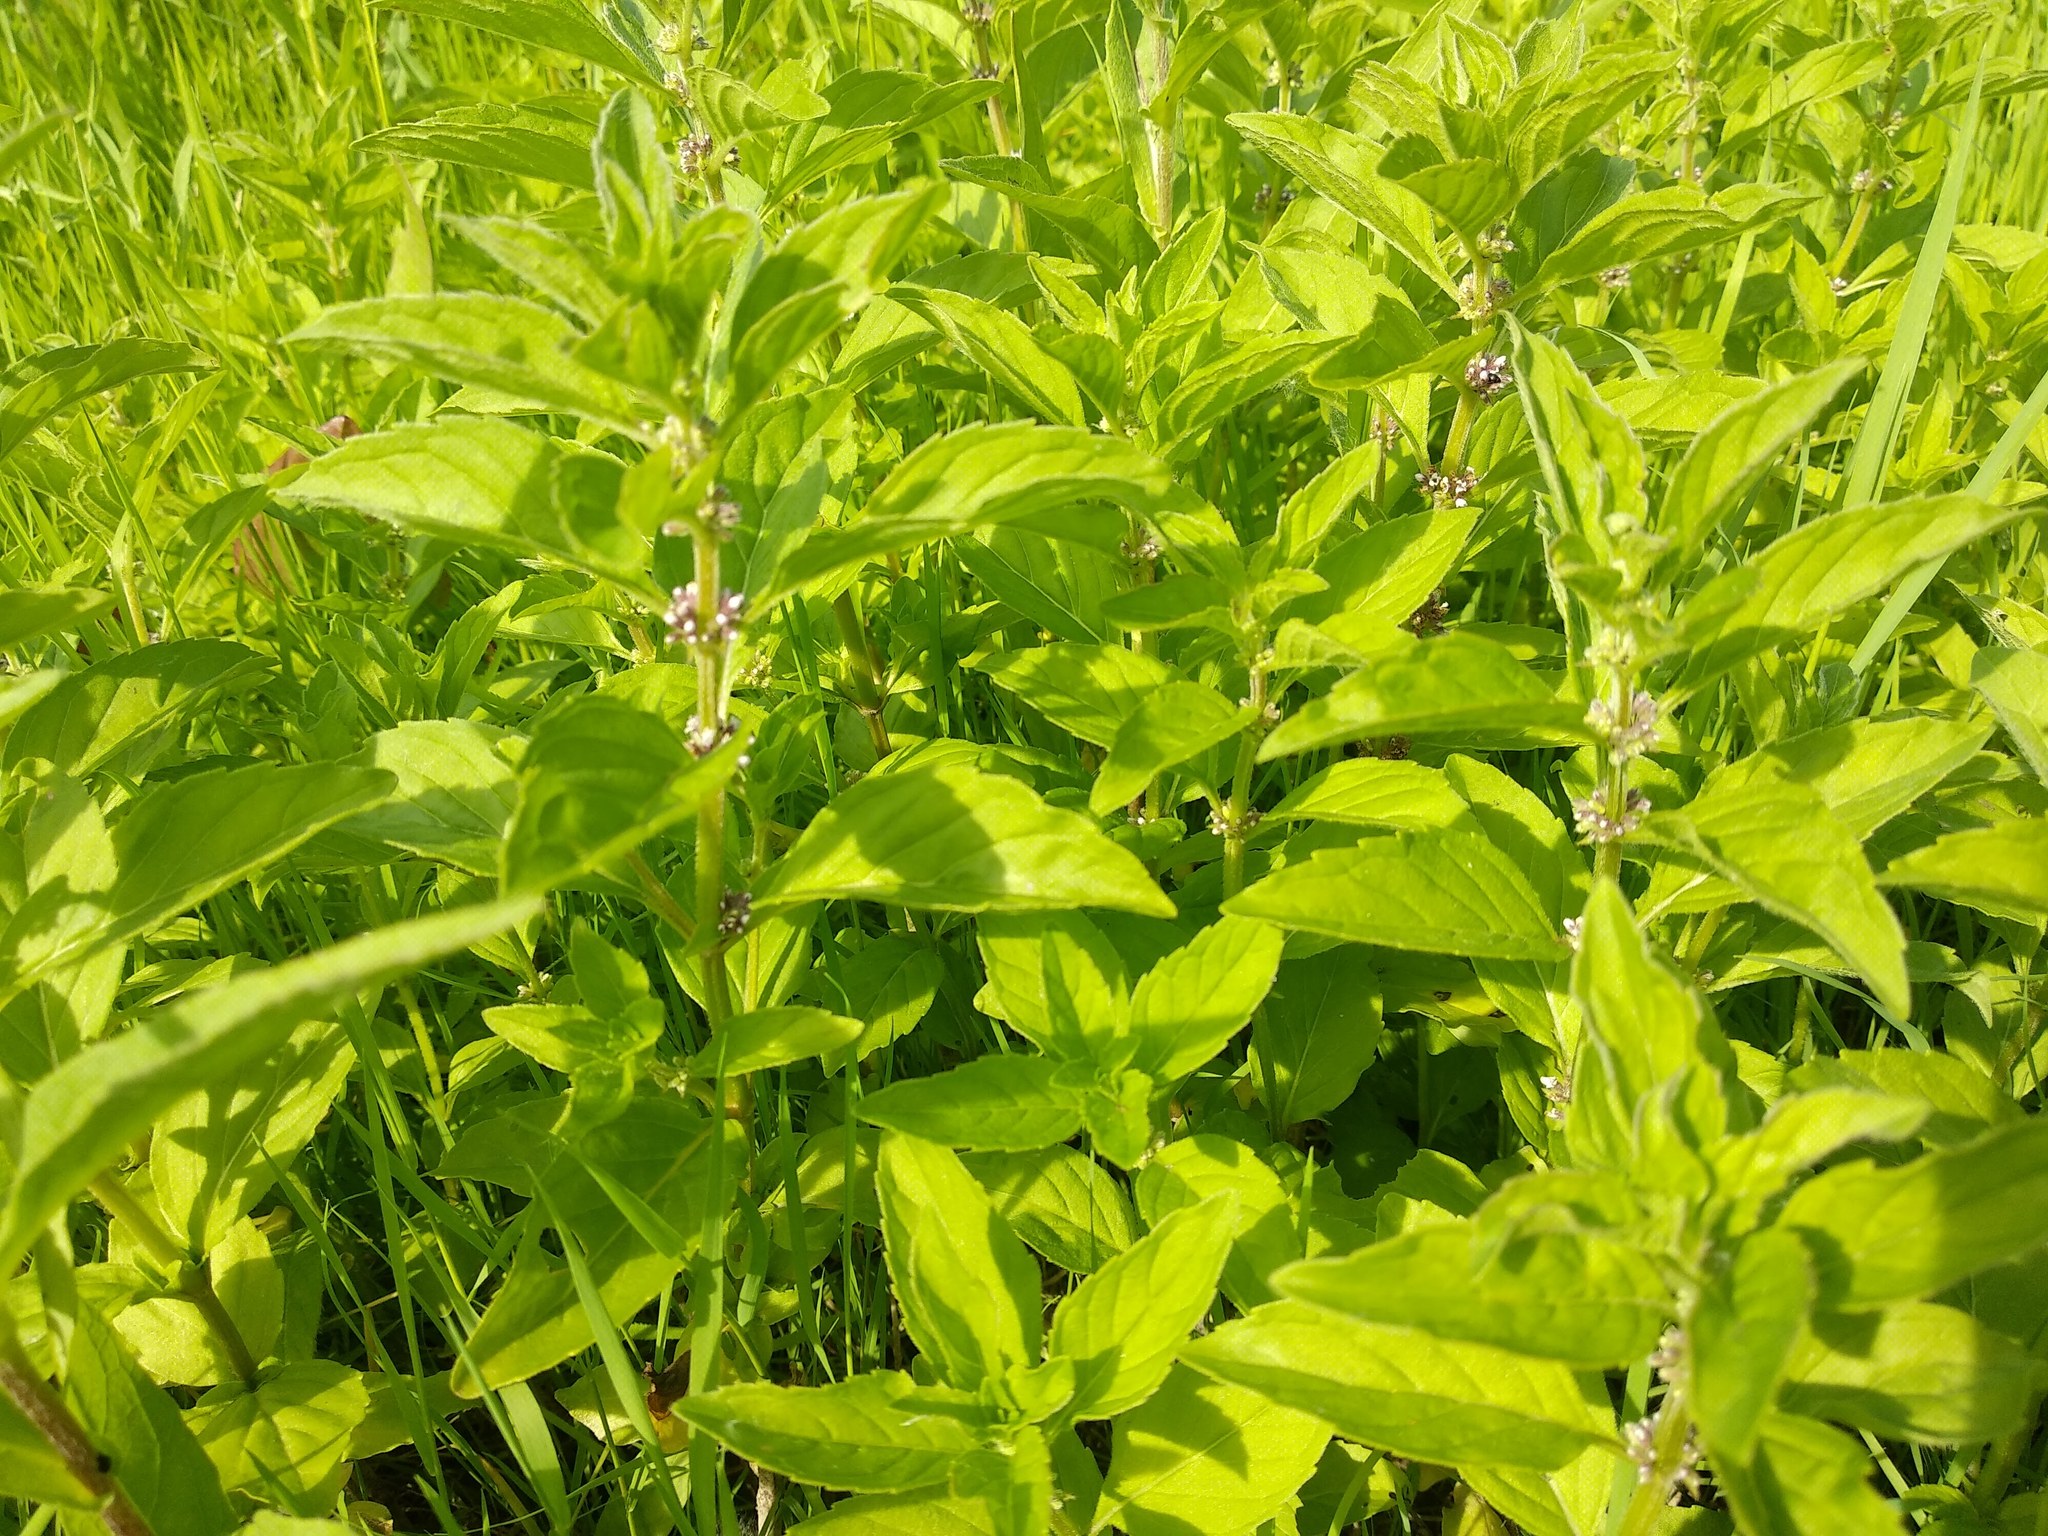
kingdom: Plantae
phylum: Tracheophyta
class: Magnoliopsida
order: Lamiales
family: Lamiaceae
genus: Mentha
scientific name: Mentha arvensis
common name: Corn mint
